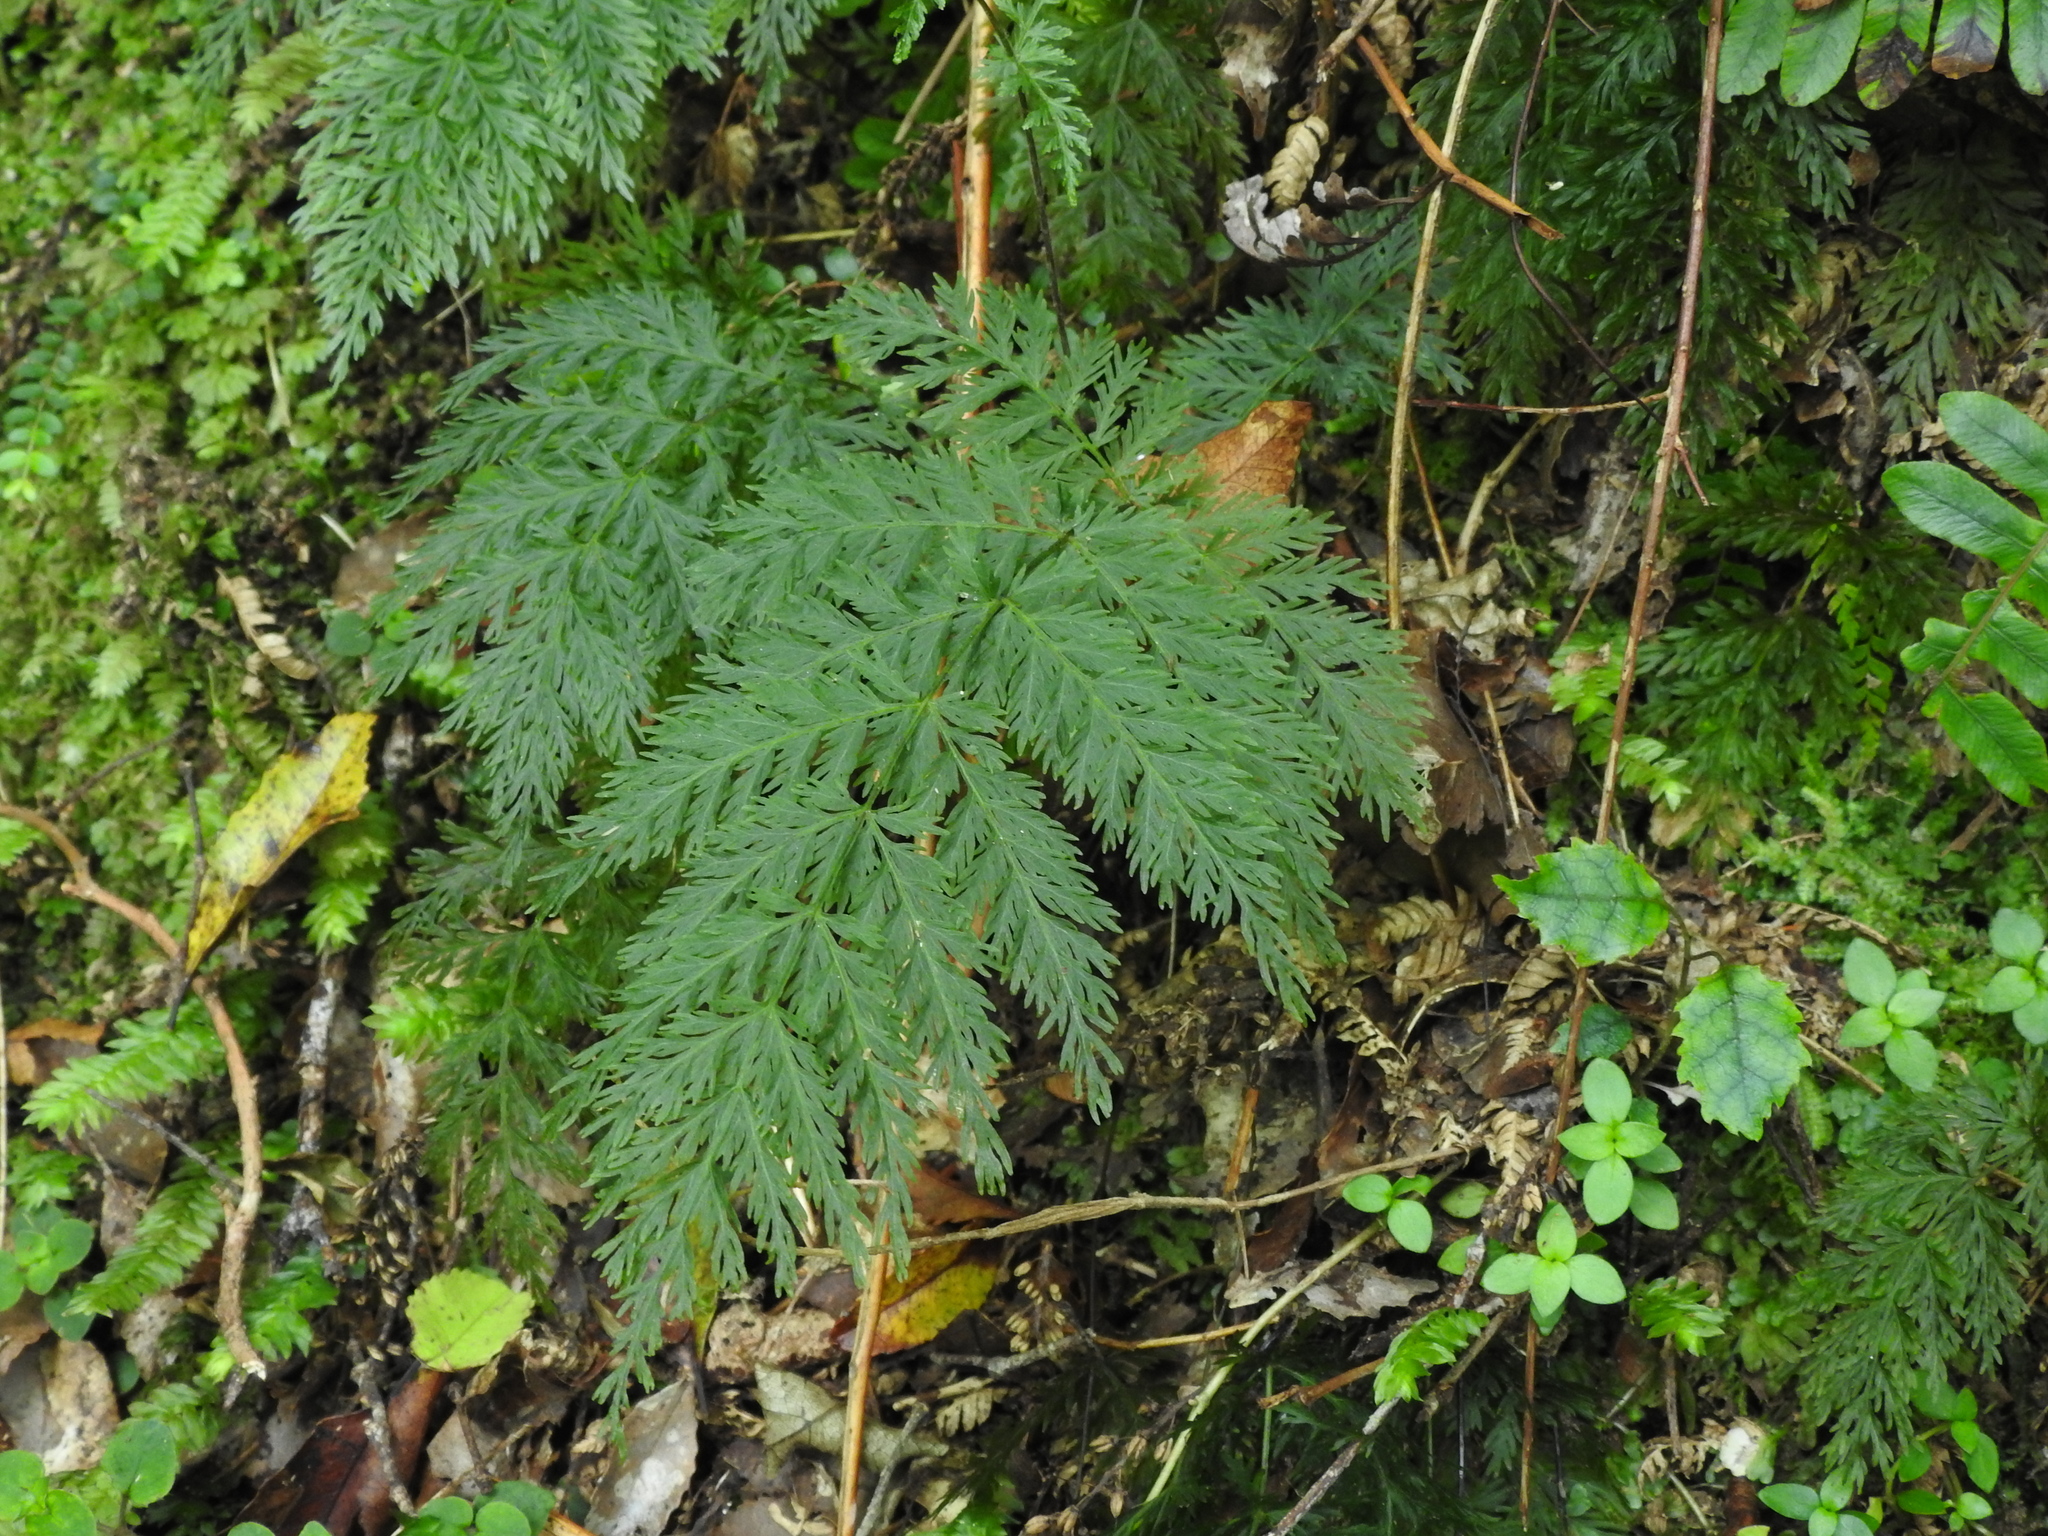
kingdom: Plantae
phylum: Tracheophyta
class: Polypodiopsida
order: Osmundales
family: Osmundaceae
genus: Leptopteris
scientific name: Leptopteris hymenophylloides
